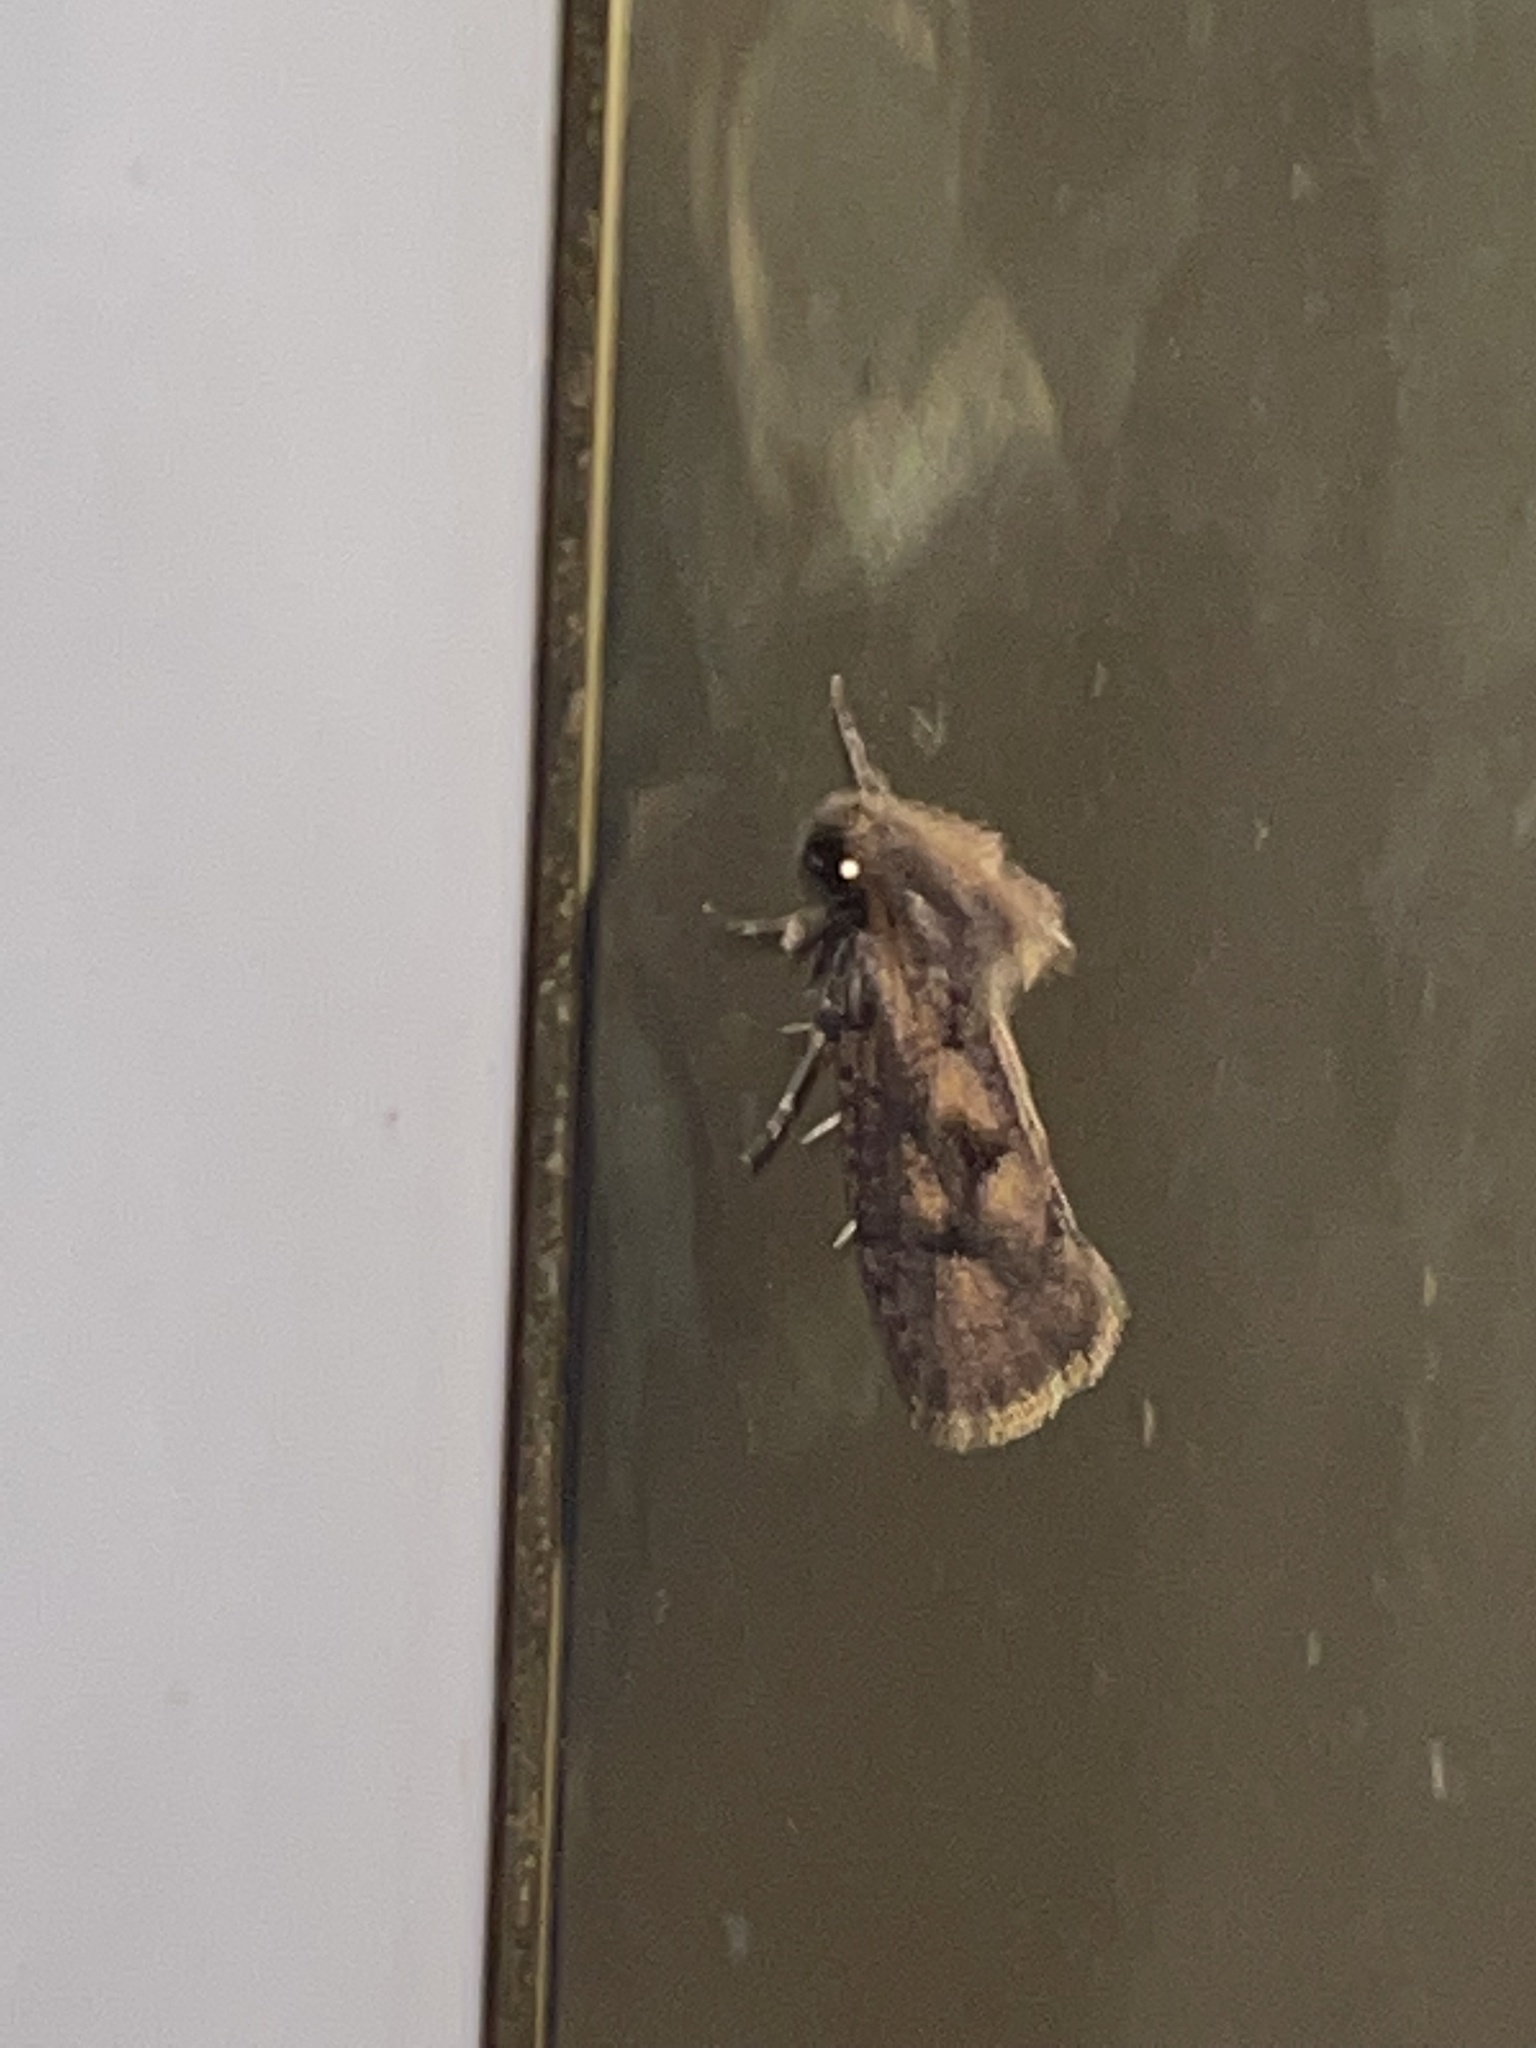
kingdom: Animalia
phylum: Arthropoda
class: Insecta
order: Lepidoptera
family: Tineidae
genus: Acrolophus
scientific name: Acrolophus popeanella
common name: Clemens' grass tubeworm moth
